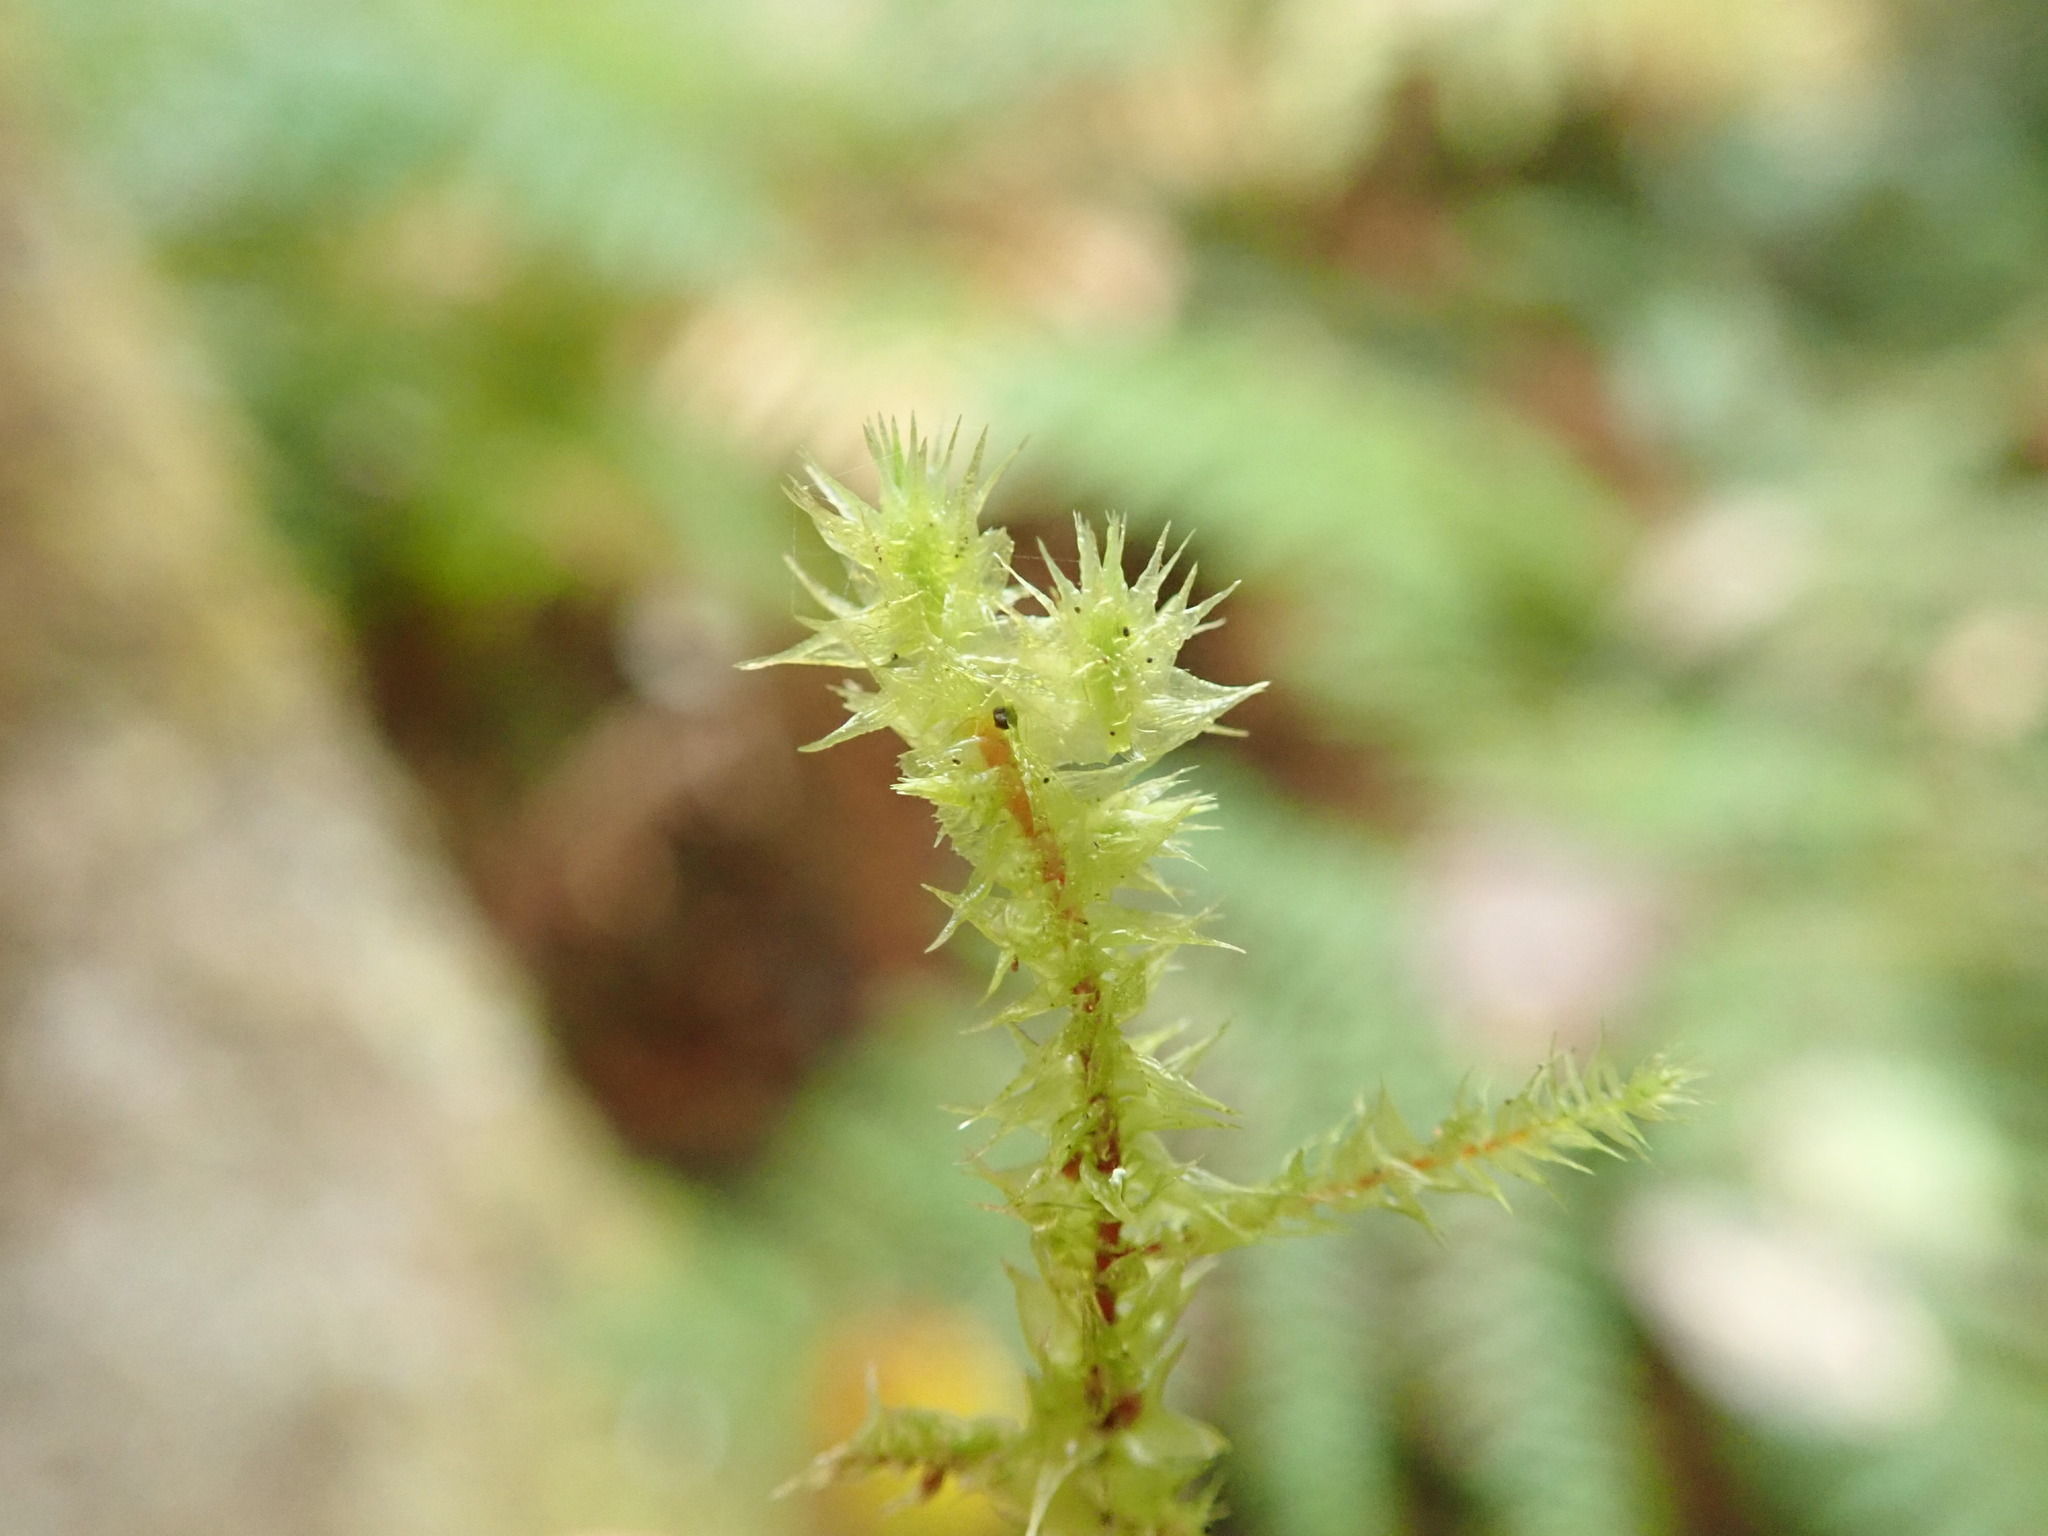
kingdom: Plantae
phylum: Bryophyta
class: Bryopsida
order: Hypnales
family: Hylocomiaceae
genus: Hylocomiadelphus
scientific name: Hylocomiadelphus triquetrus
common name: Rough goose neck moss
